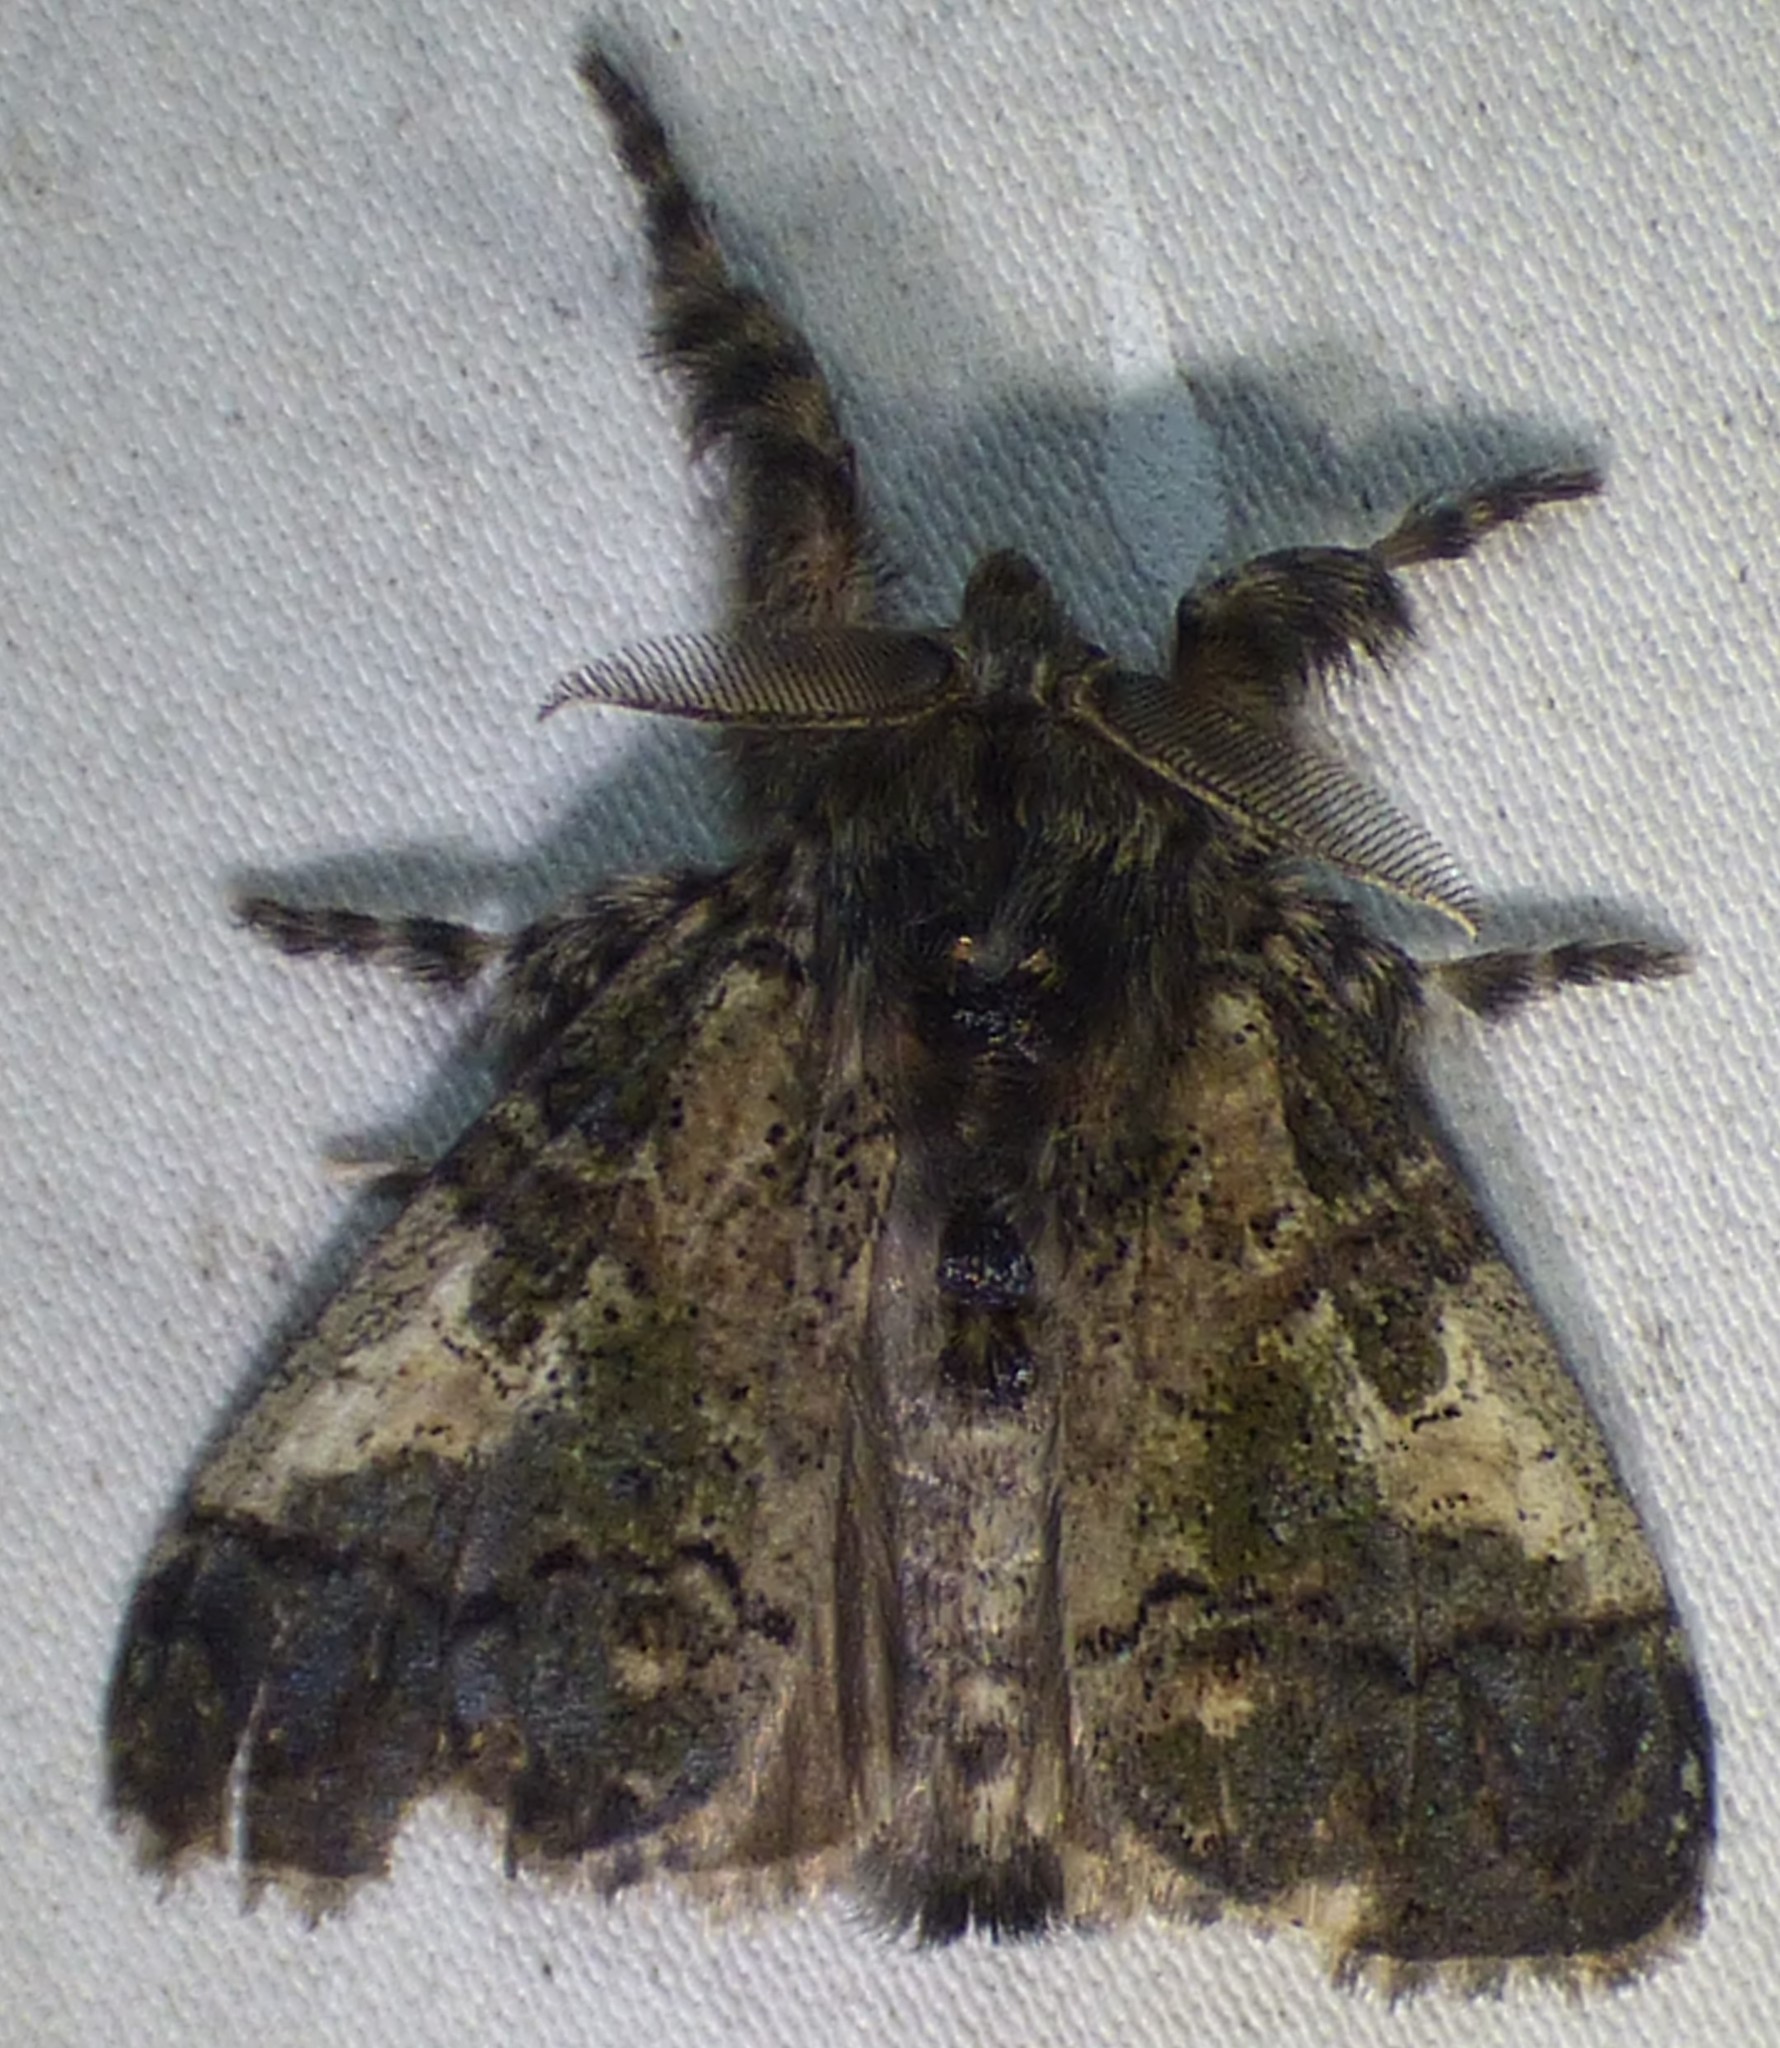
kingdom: Animalia
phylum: Arthropoda
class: Insecta
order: Lepidoptera
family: Erebidae
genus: Dasychira
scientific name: Dasychira meridionalis
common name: Southern tussock moth
